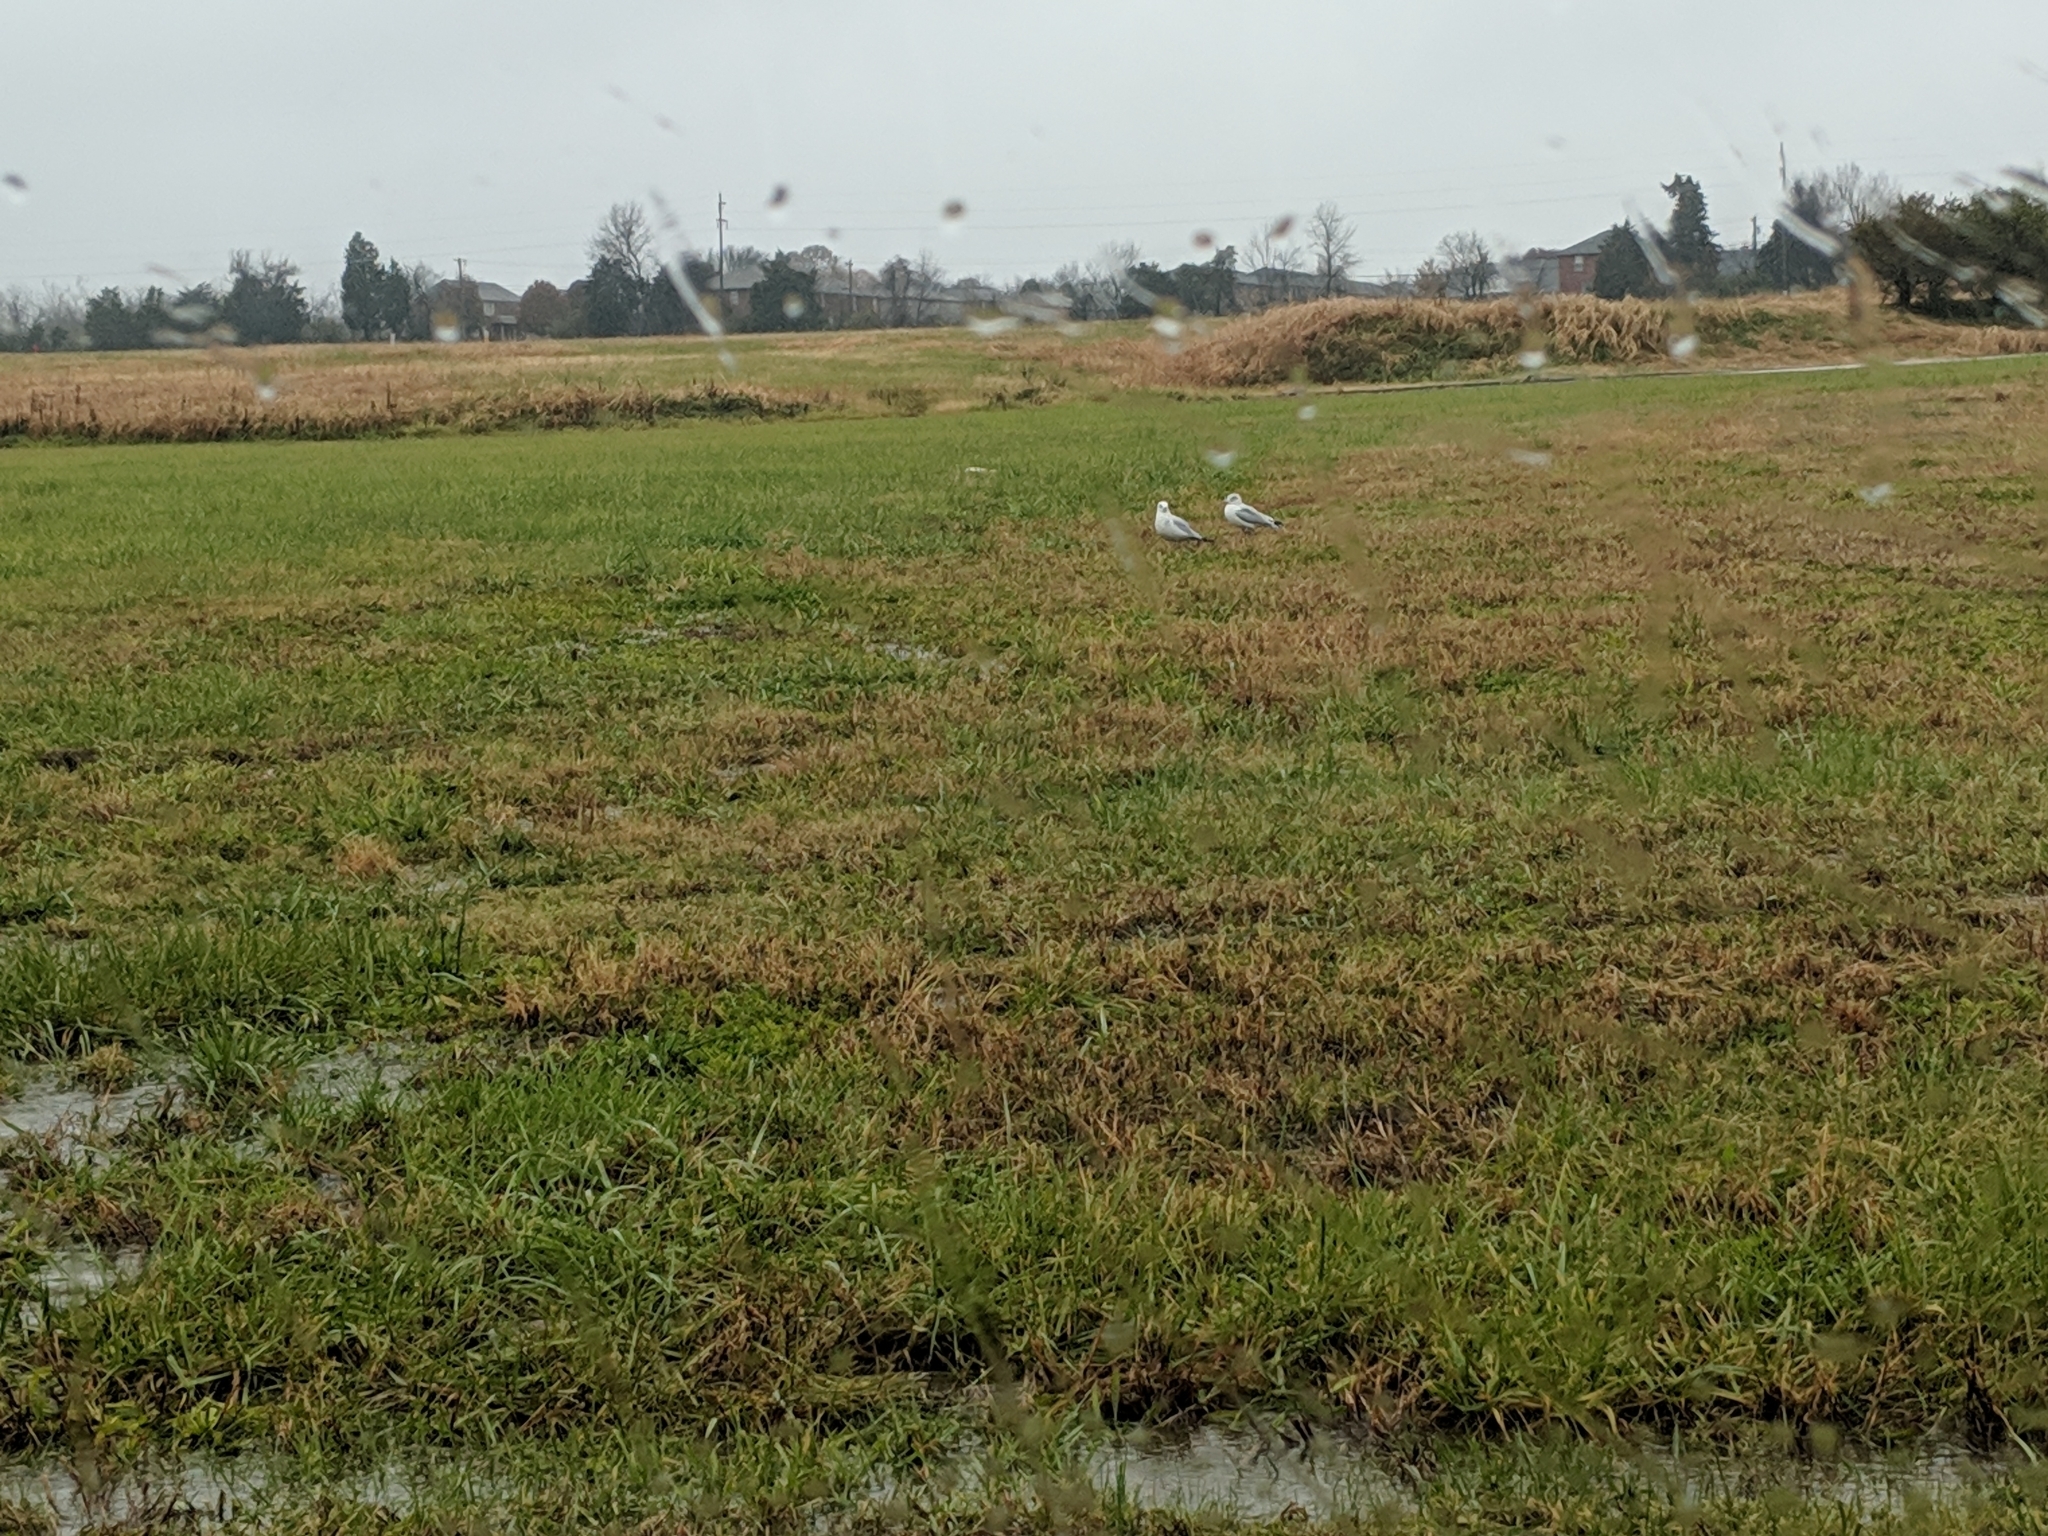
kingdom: Animalia
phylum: Chordata
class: Aves
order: Charadriiformes
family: Laridae
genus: Larus
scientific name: Larus delawarensis
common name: Ring-billed gull
